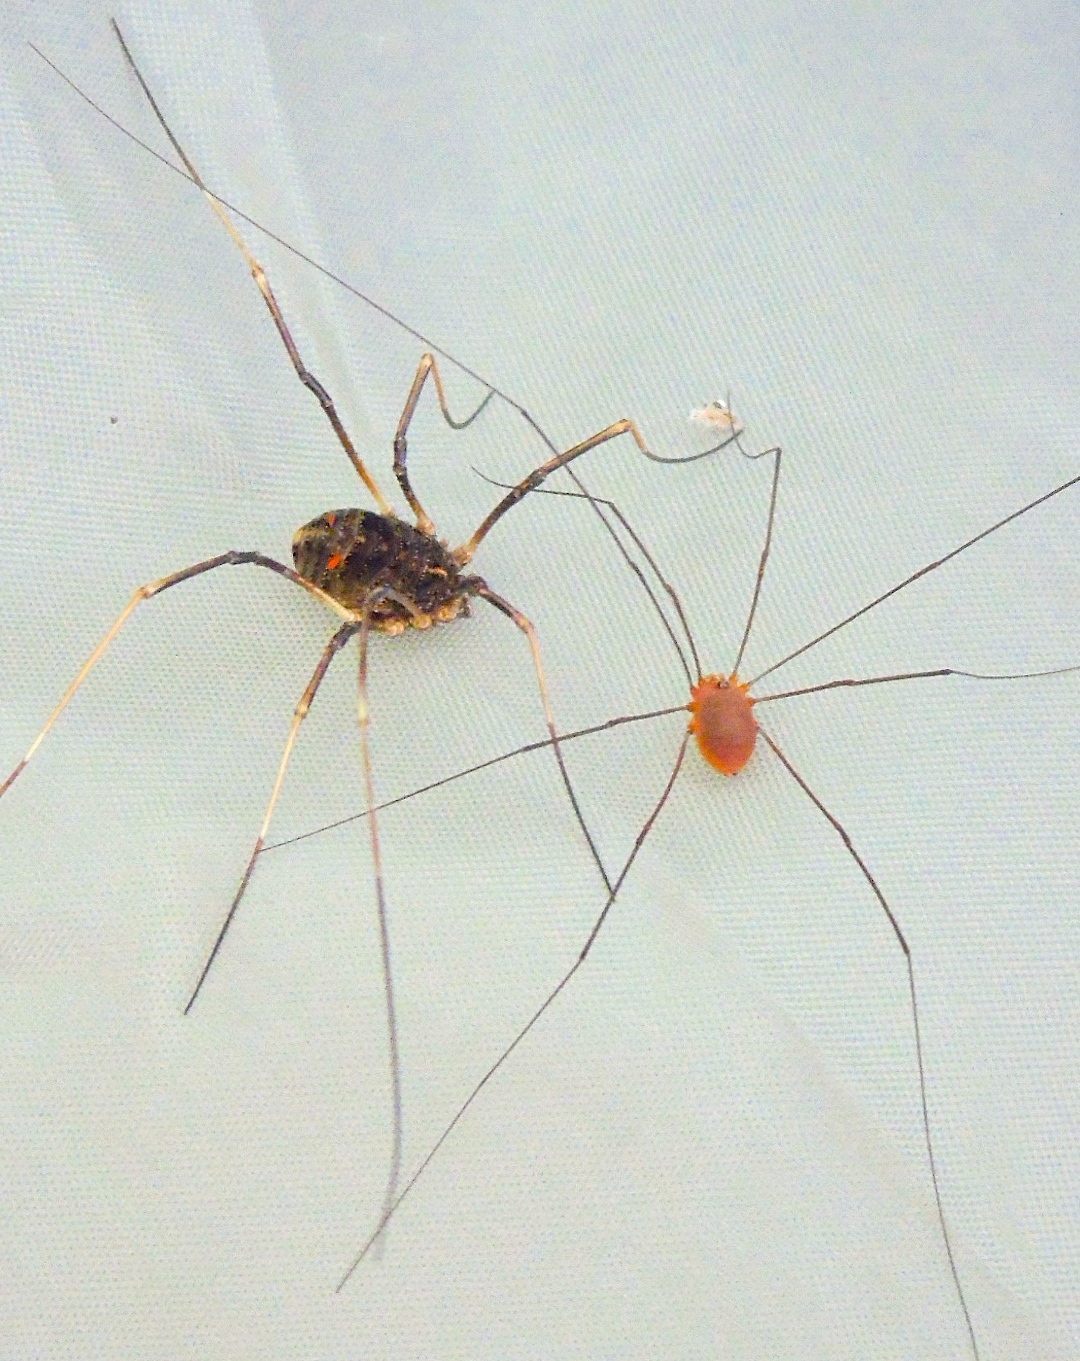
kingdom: Animalia
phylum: Arthropoda
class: Arachnida
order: Opiliones
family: Globipedidae
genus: Metopilio
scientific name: Metopilio
